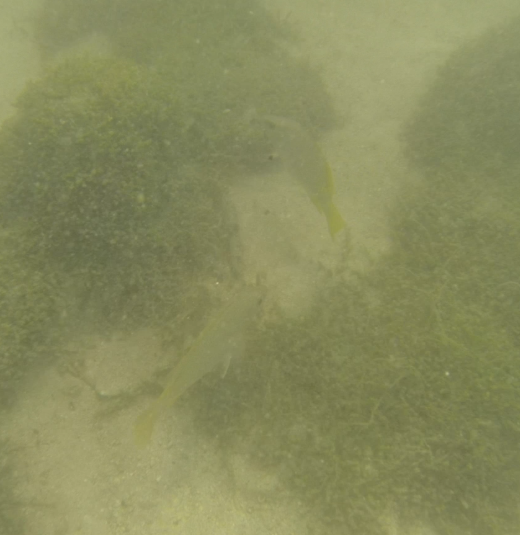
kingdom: Animalia
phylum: Chordata
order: Perciformes
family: Lutjanidae
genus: Lutjanus
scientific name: Lutjanus argentiventris
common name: Yellow snapper
